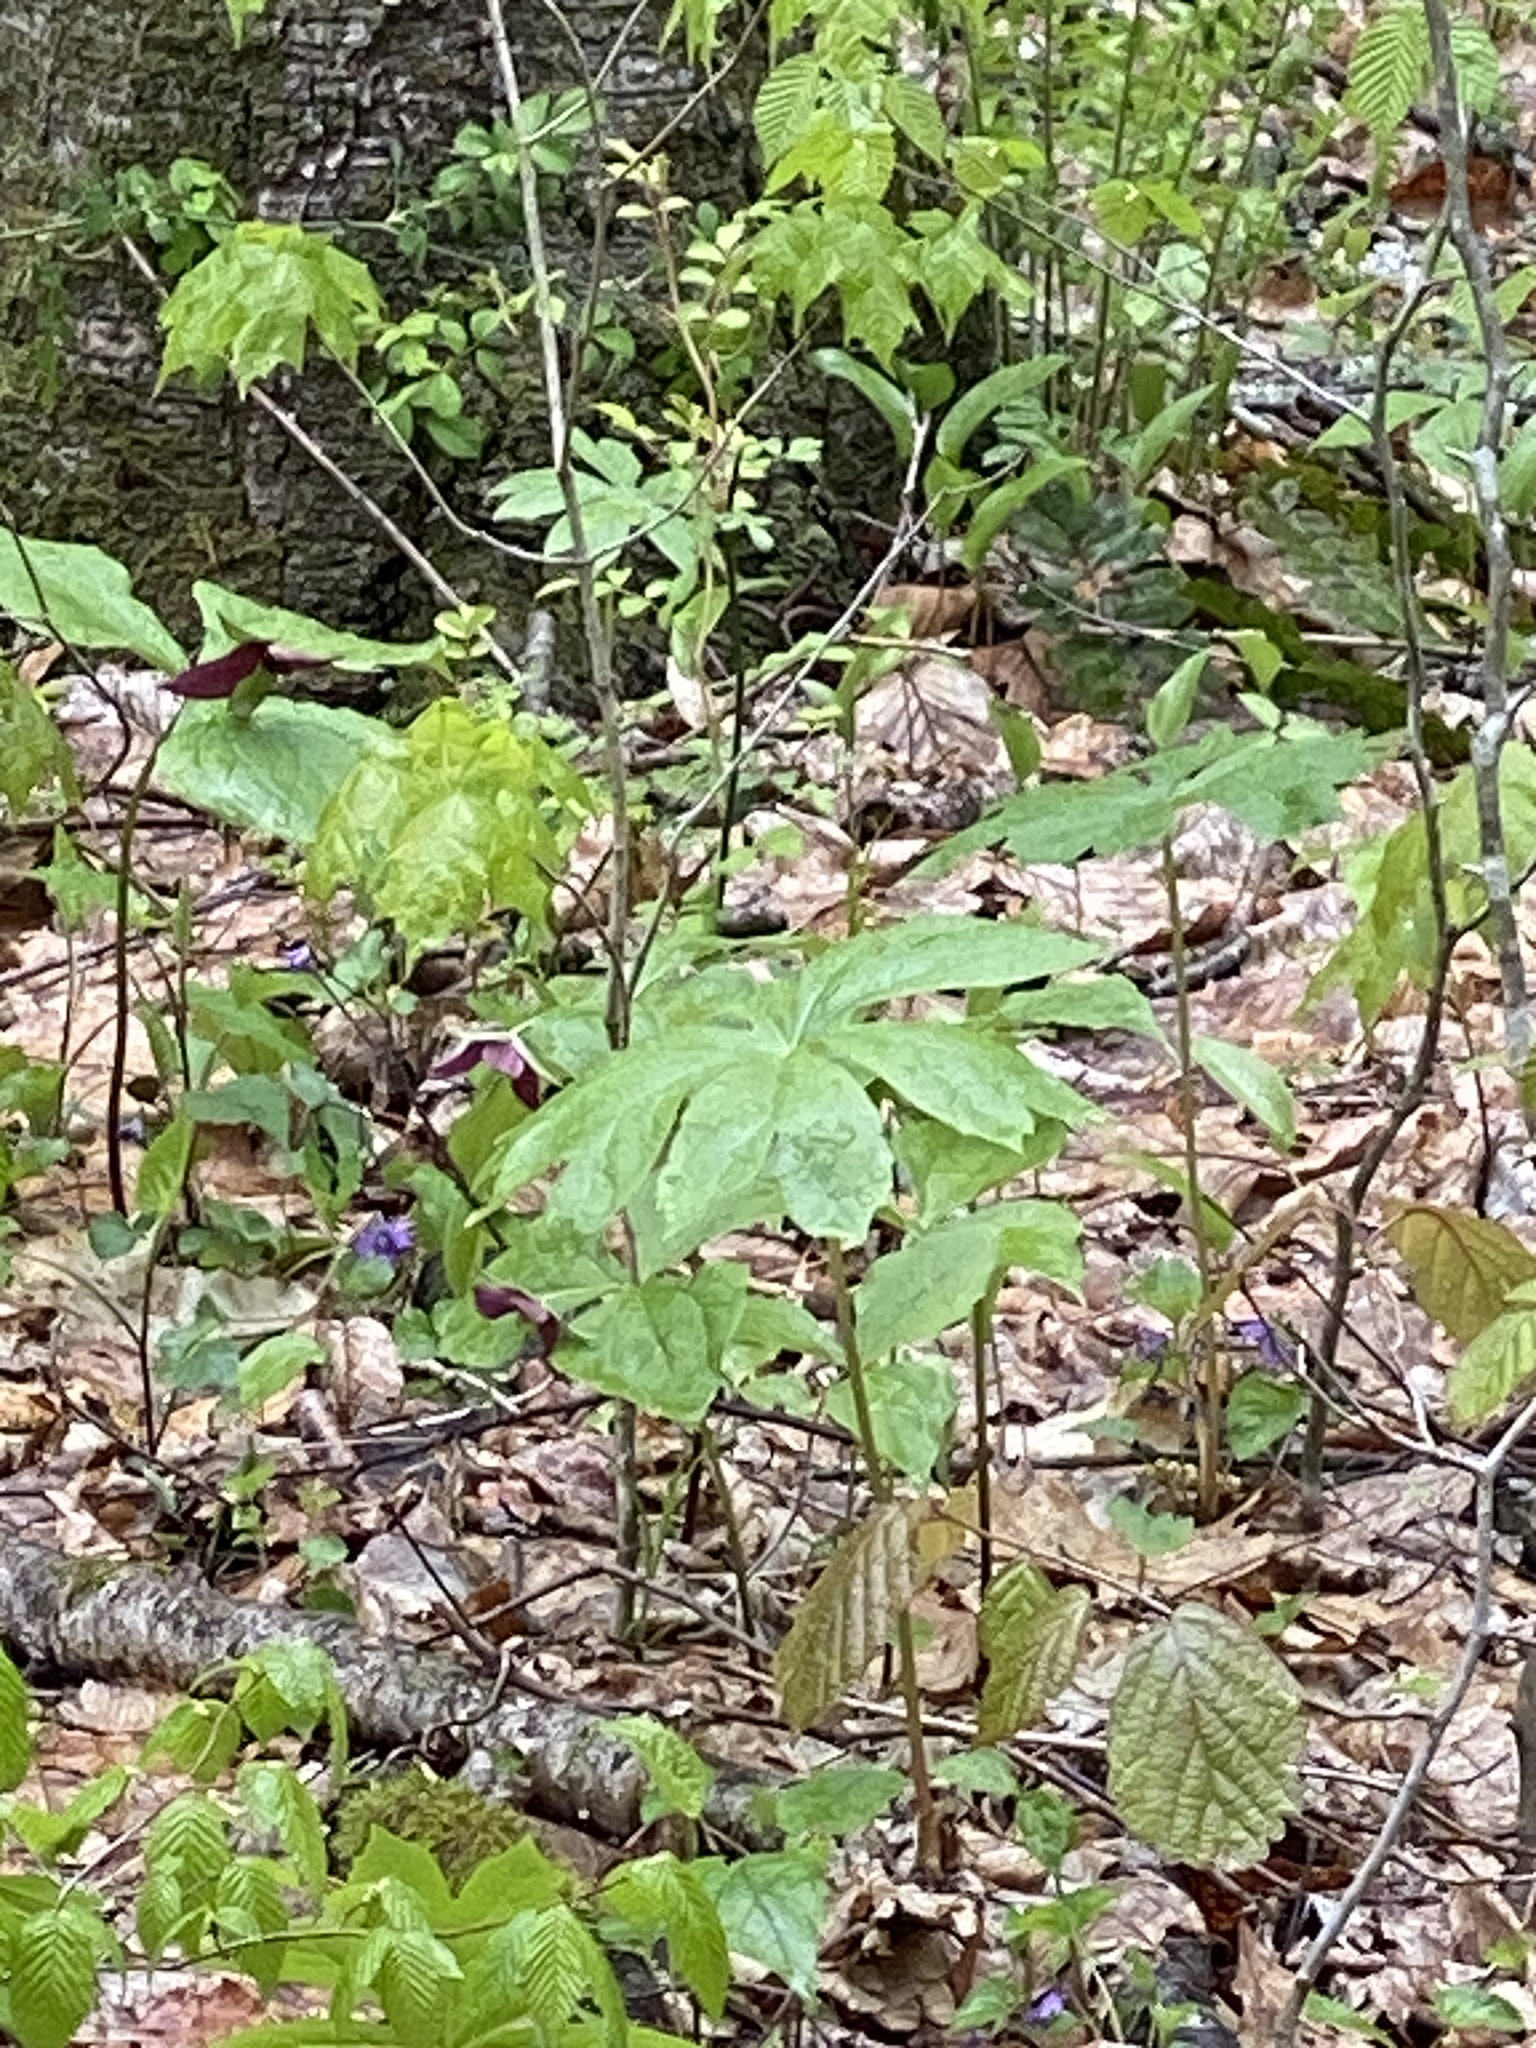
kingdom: Plantae
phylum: Tracheophyta
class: Magnoliopsida
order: Ranunculales
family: Berberidaceae
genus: Podophyllum
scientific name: Podophyllum peltatum
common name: Wild mandrake
